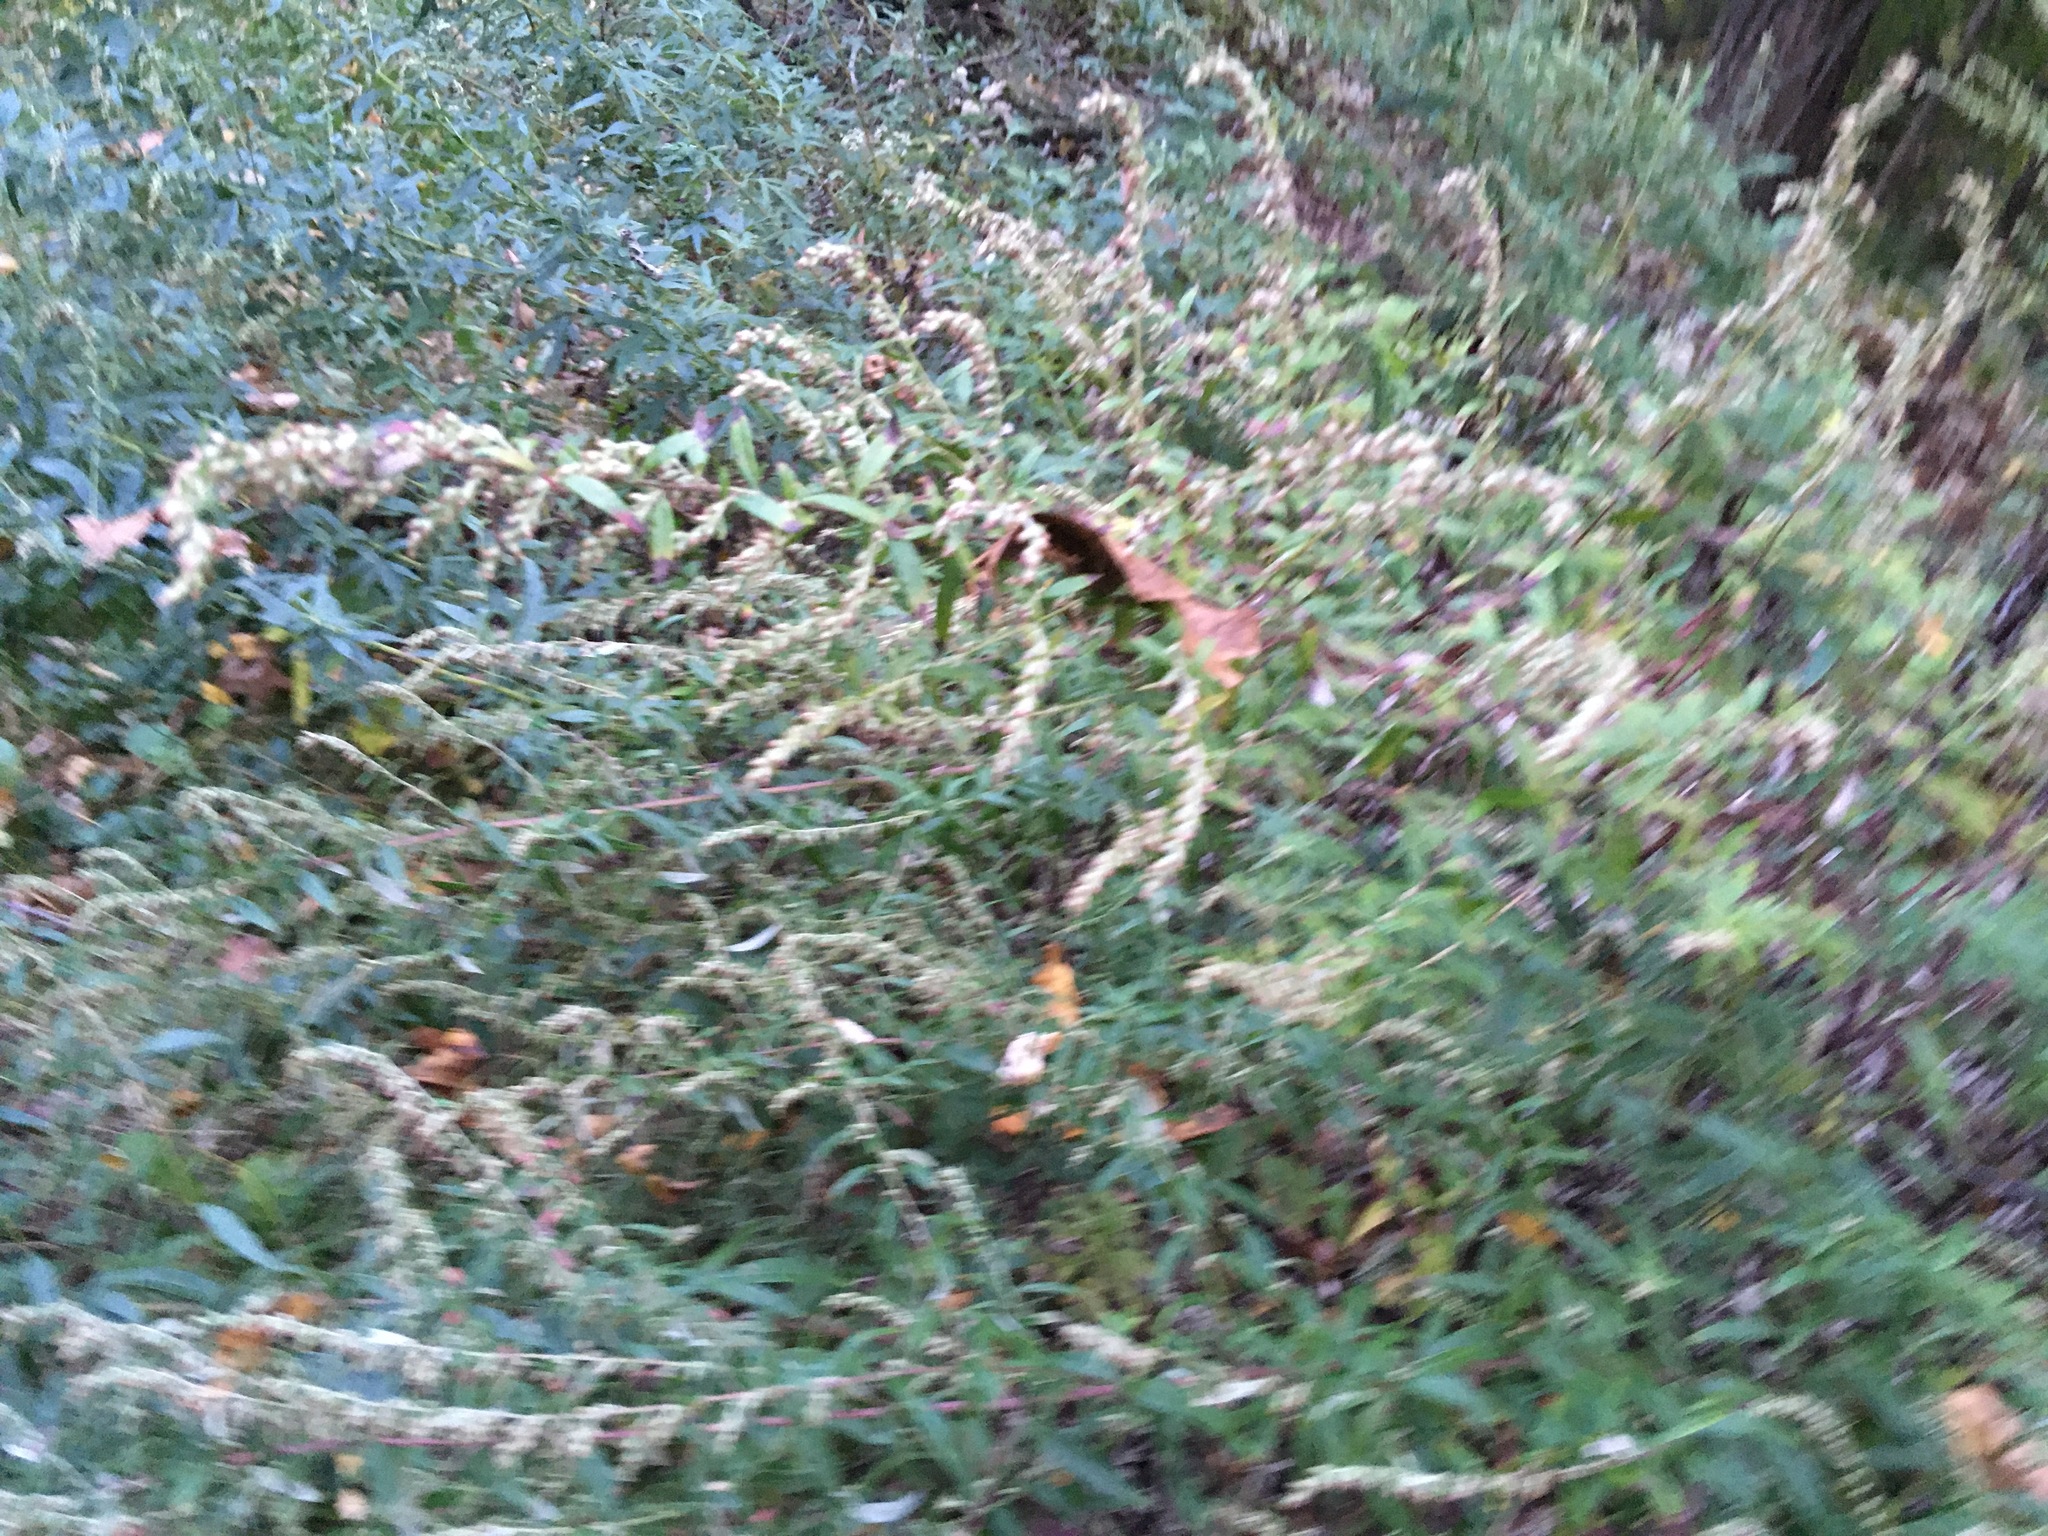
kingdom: Plantae
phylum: Tracheophyta
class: Magnoliopsida
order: Asterales
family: Asteraceae
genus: Artemisia
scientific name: Artemisia vulgaris
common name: Mugwort
